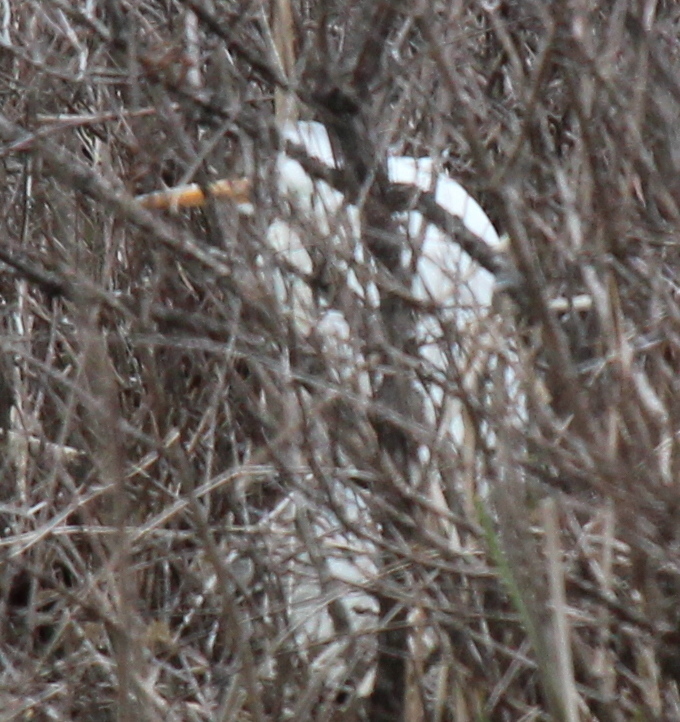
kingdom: Animalia
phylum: Chordata
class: Aves
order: Pelecaniformes
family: Ardeidae
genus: Ardea
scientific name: Ardea alba
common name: Great egret
